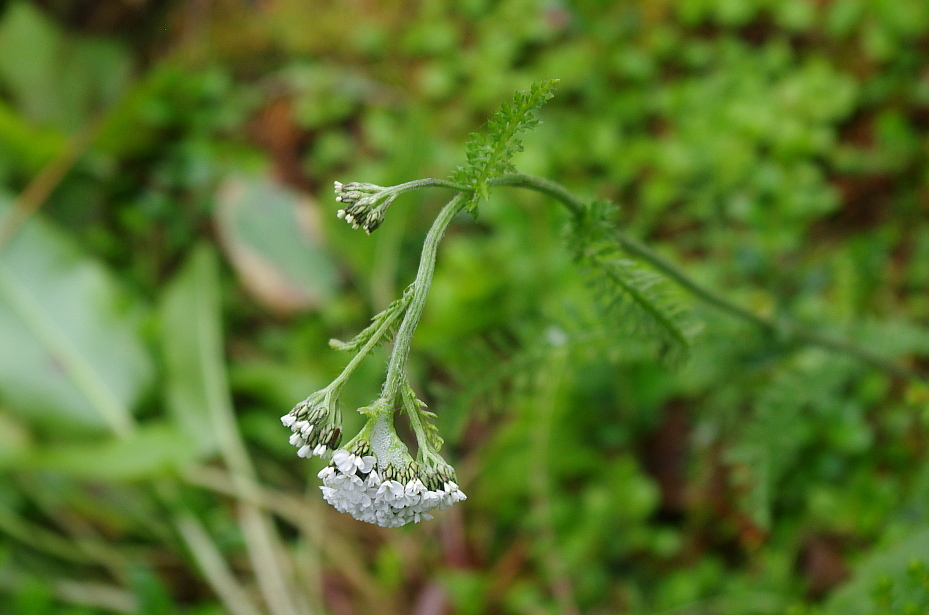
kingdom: Plantae
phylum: Tracheophyta
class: Magnoliopsida
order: Asterales
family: Asteraceae
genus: Achillea
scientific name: Achillea millefolium
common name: Yarrow
